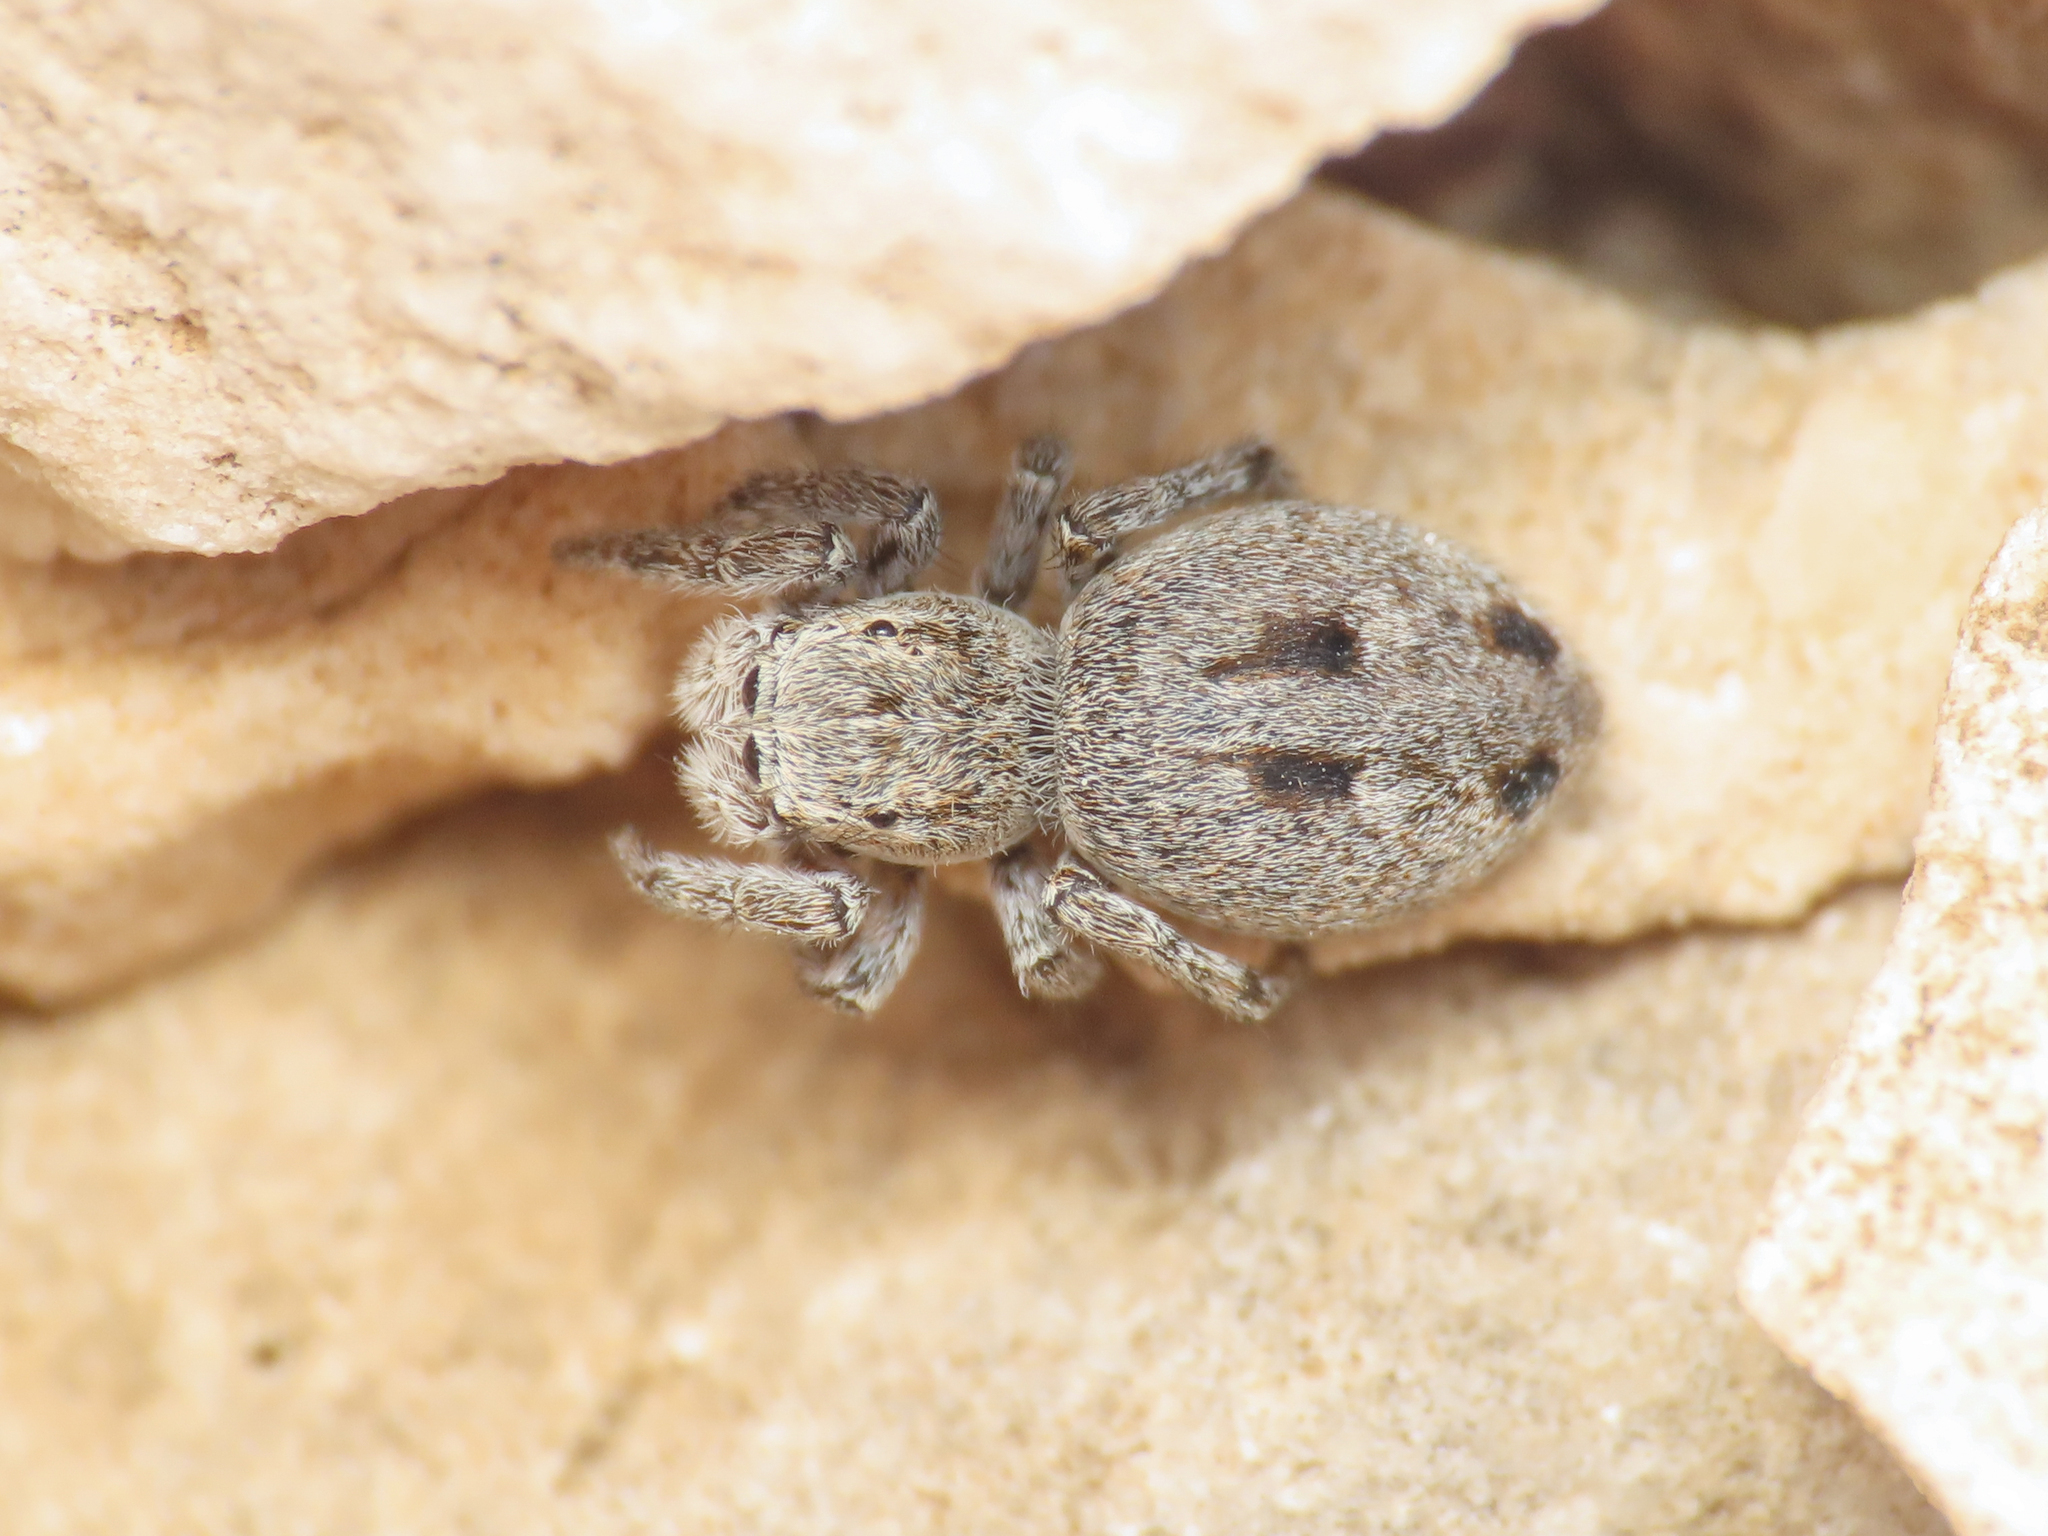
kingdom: Animalia
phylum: Arthropoda
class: Arachnida
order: Araneae
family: Salticidae
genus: Attulus
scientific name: Attulus atricapillus
